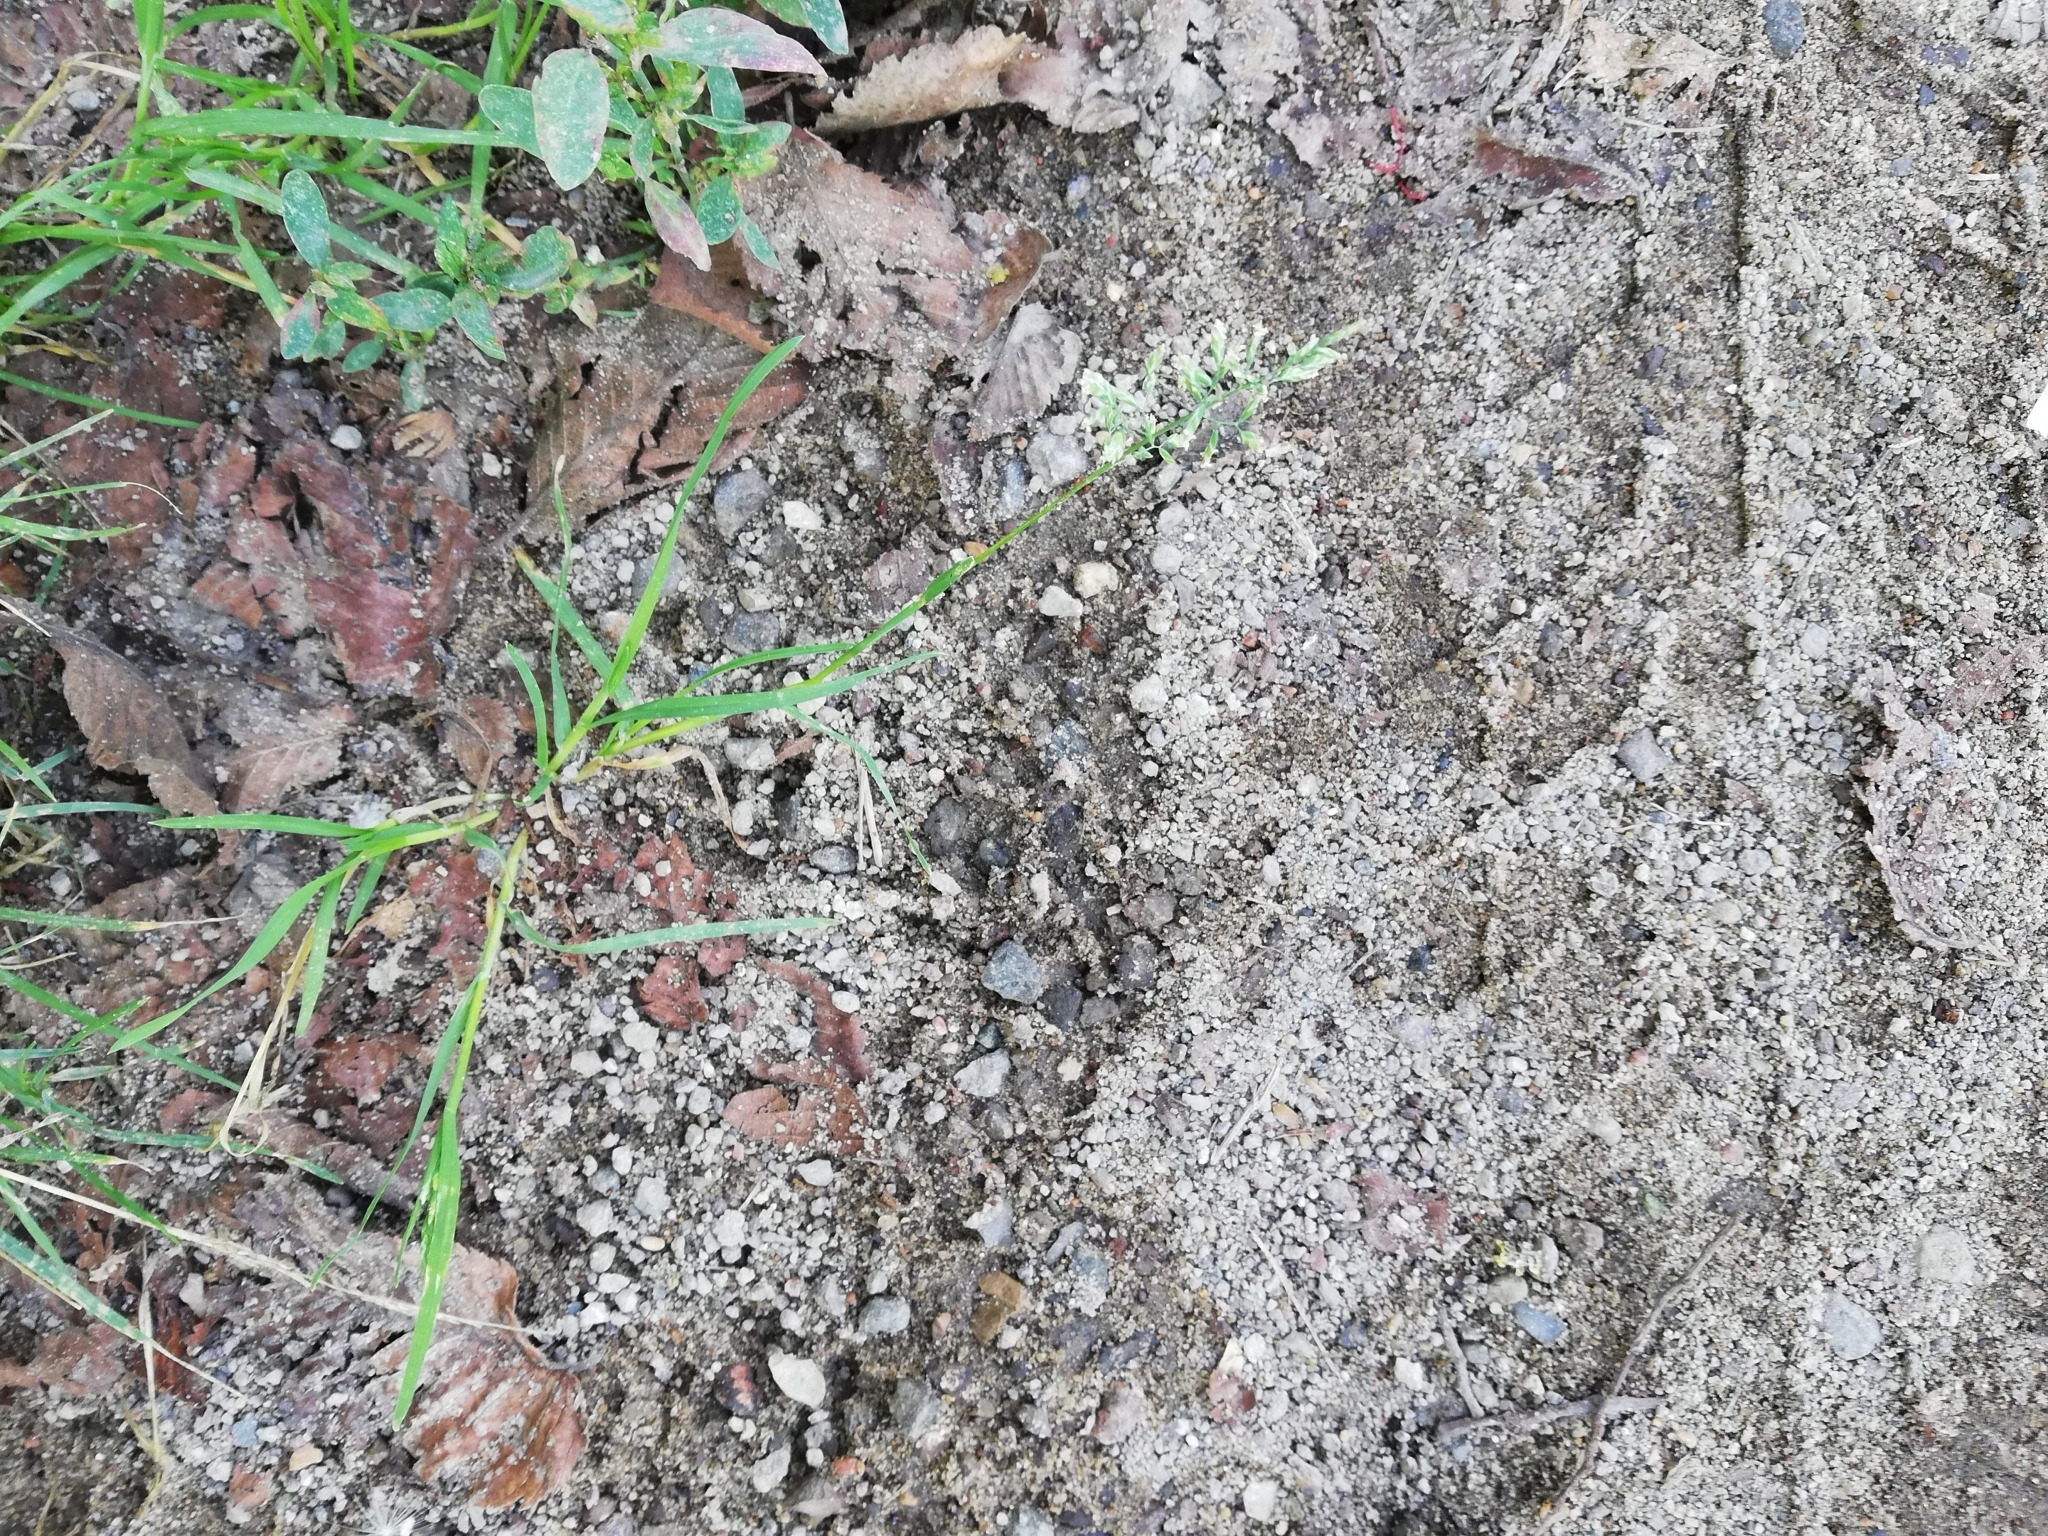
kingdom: Plantae
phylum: Tracheophyta
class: Liliopsida
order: Poales
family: Poaceae
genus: Poa
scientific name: Poa annua
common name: Annual bluegrass
